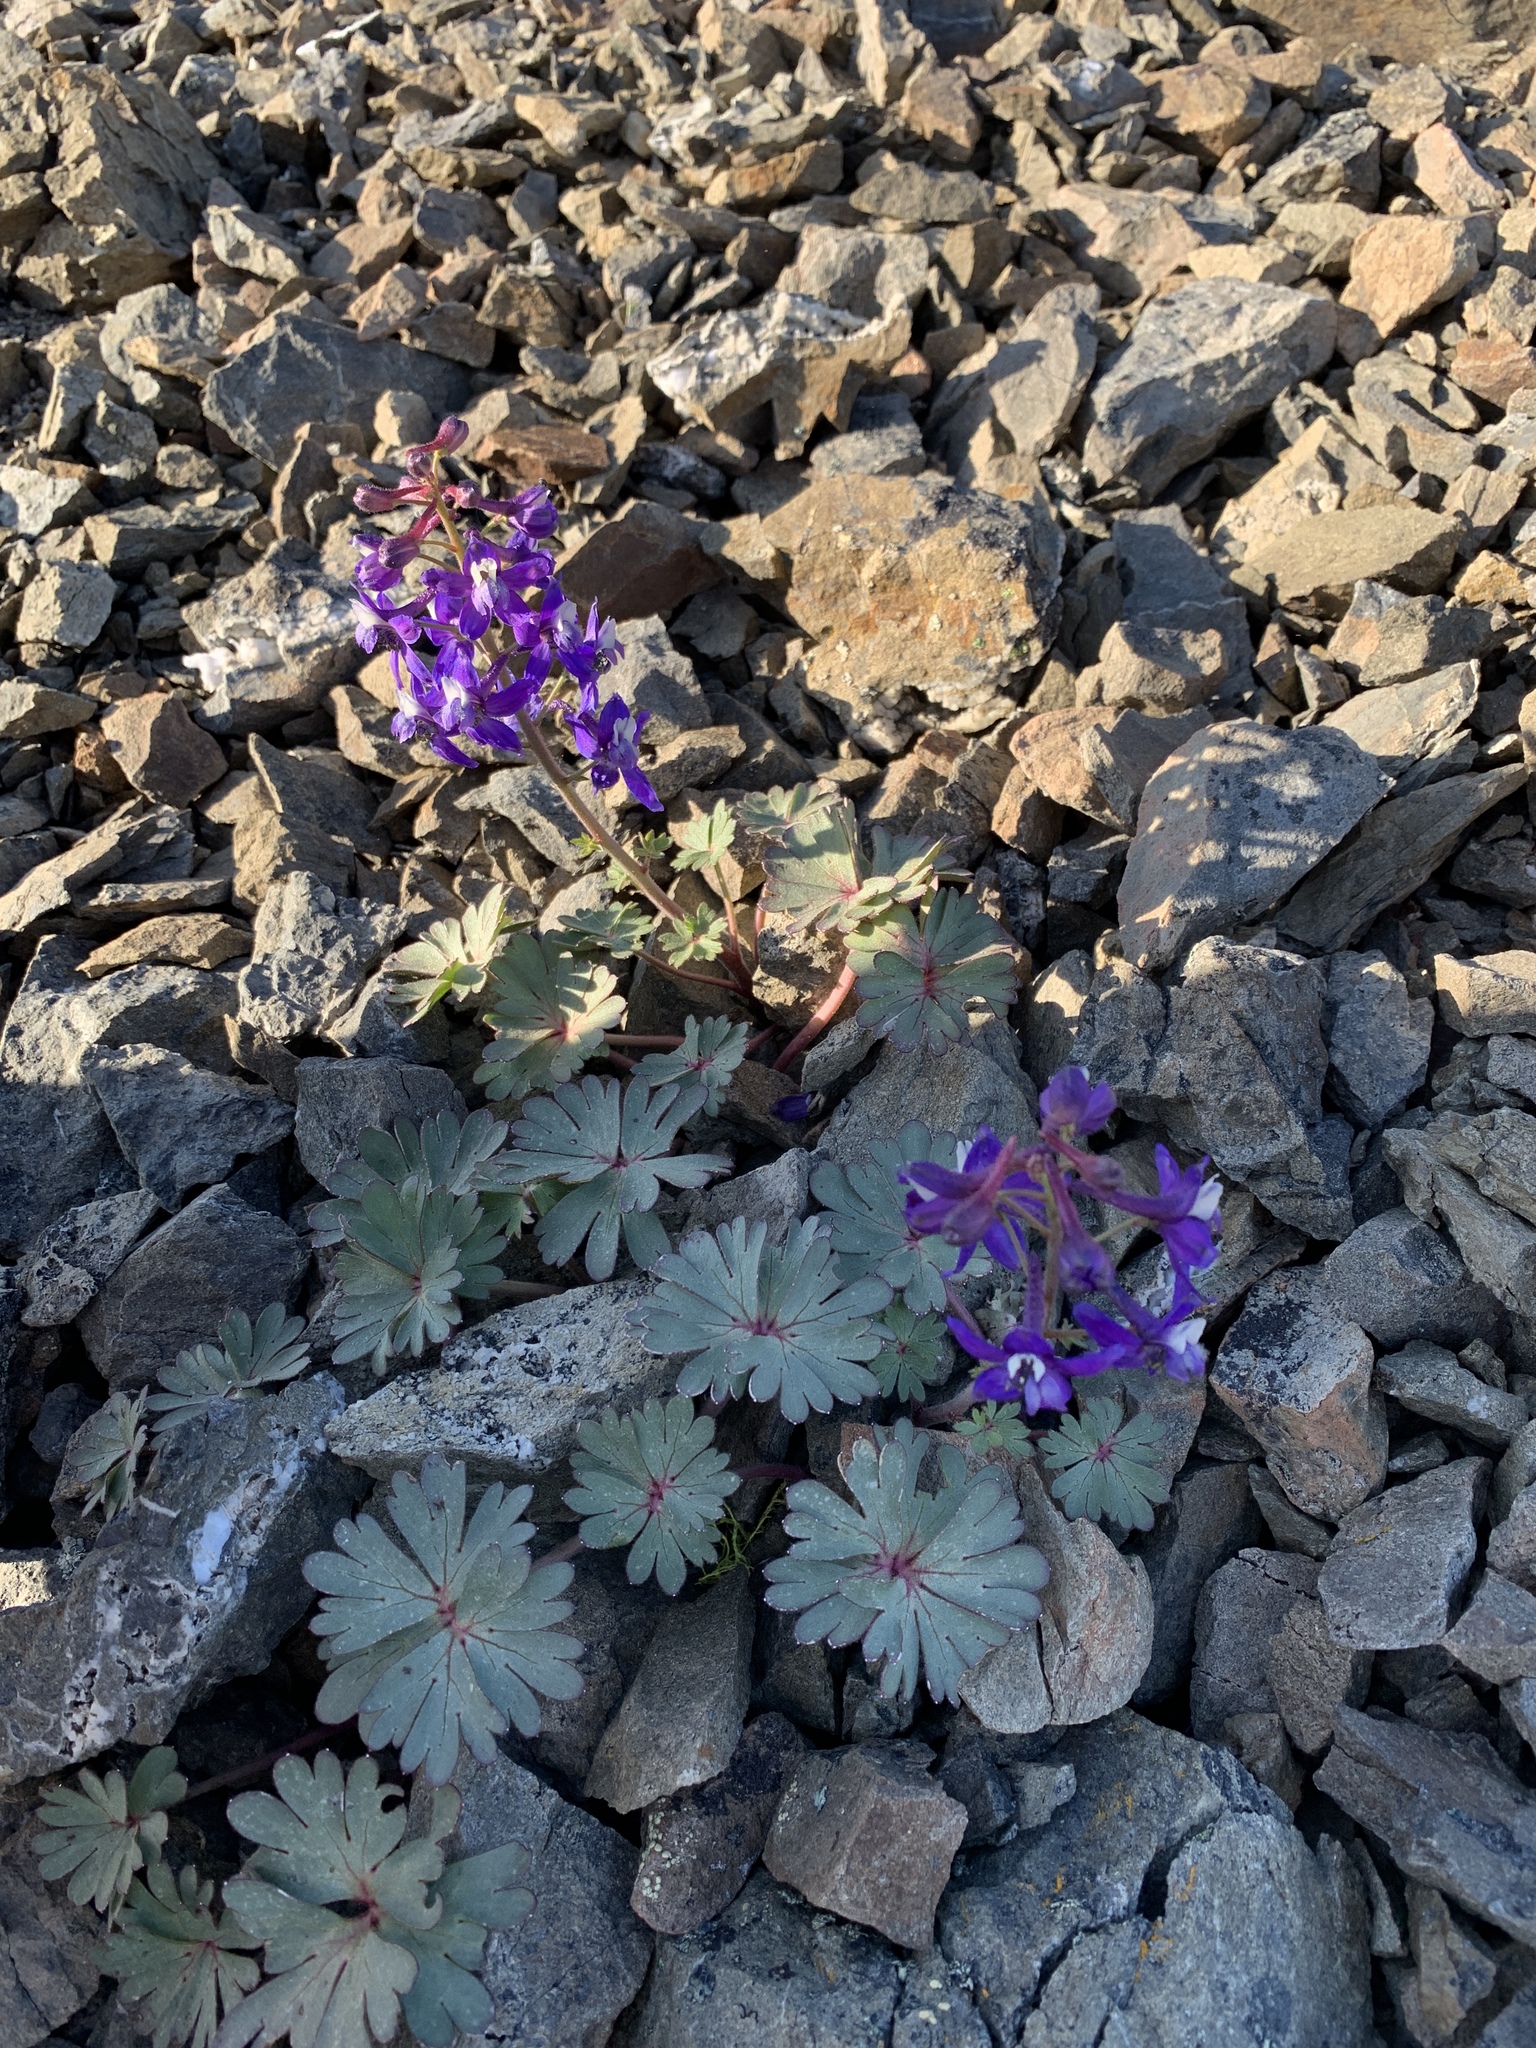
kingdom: Plantae
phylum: Tracheophyta
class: Magnoliopsida
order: Ranunculales
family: Ranunculaceae
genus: Delphinium
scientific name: Delphinium antoninum
